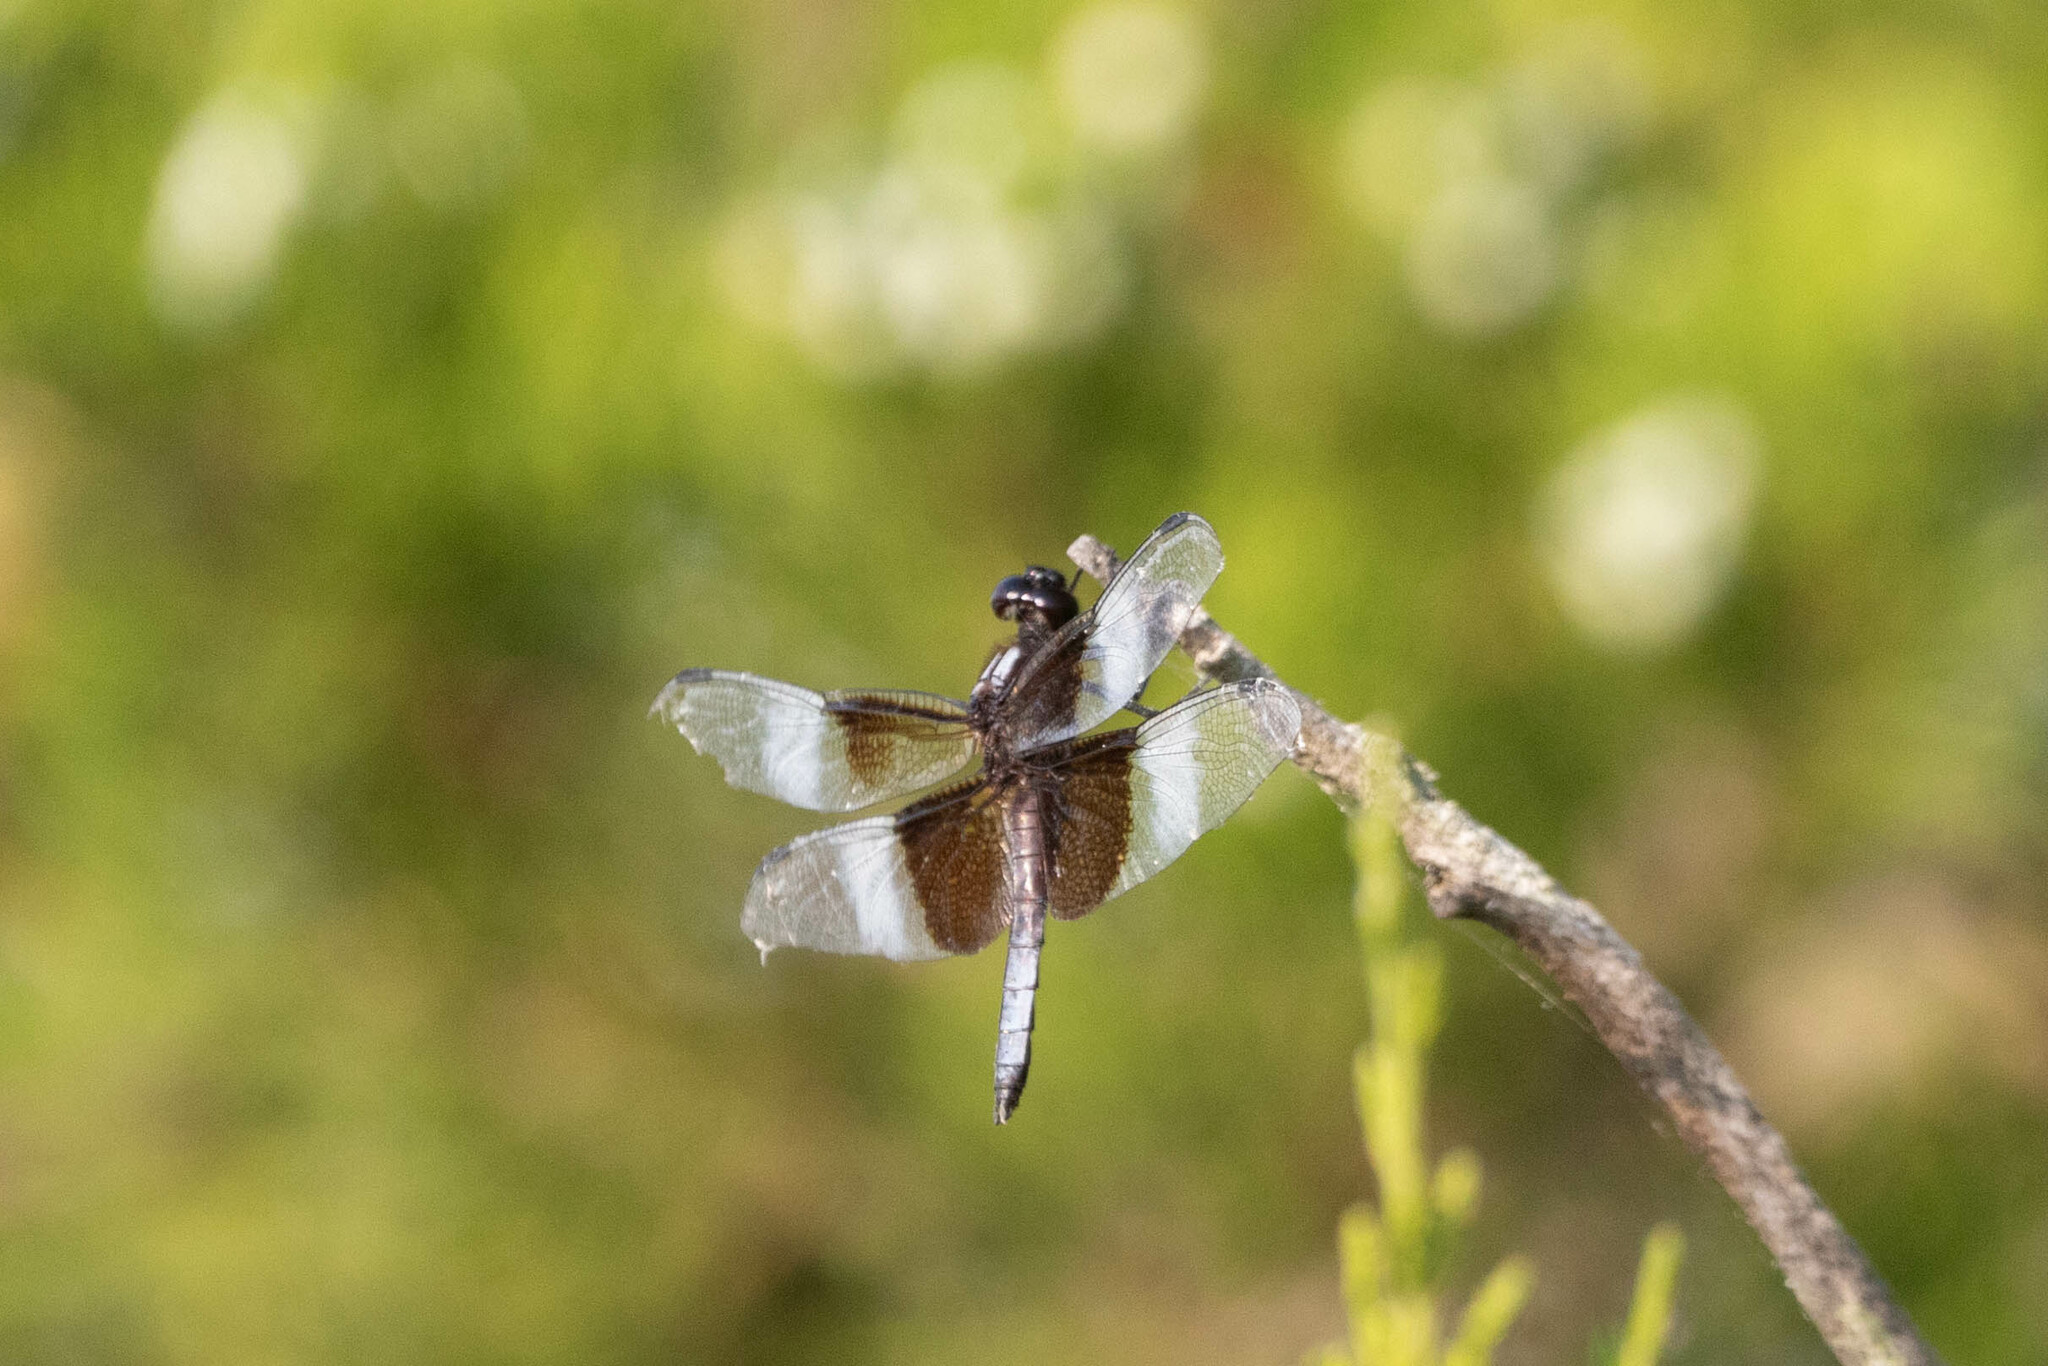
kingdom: Animalia
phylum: Arthropoda
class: Insecta
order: Odonata
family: Libellulidae
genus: Libellula
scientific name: Libellula luctuosa
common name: Widow skimmer
